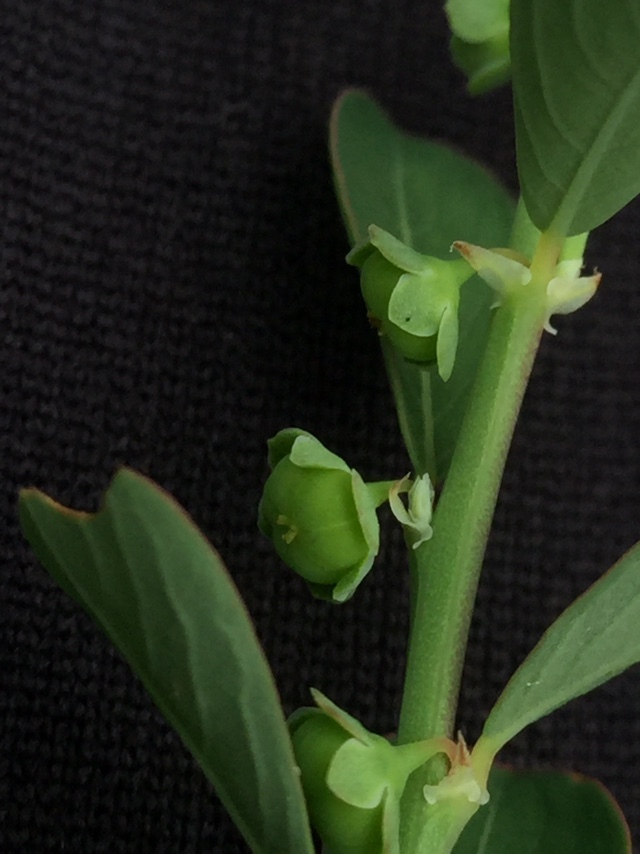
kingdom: Plantae
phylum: Tracheophyta
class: Magnoliopsida
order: Malpighiales
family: Phyllanthaceae
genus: Phyllanthus
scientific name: Phyllanthus maderaspatensis
